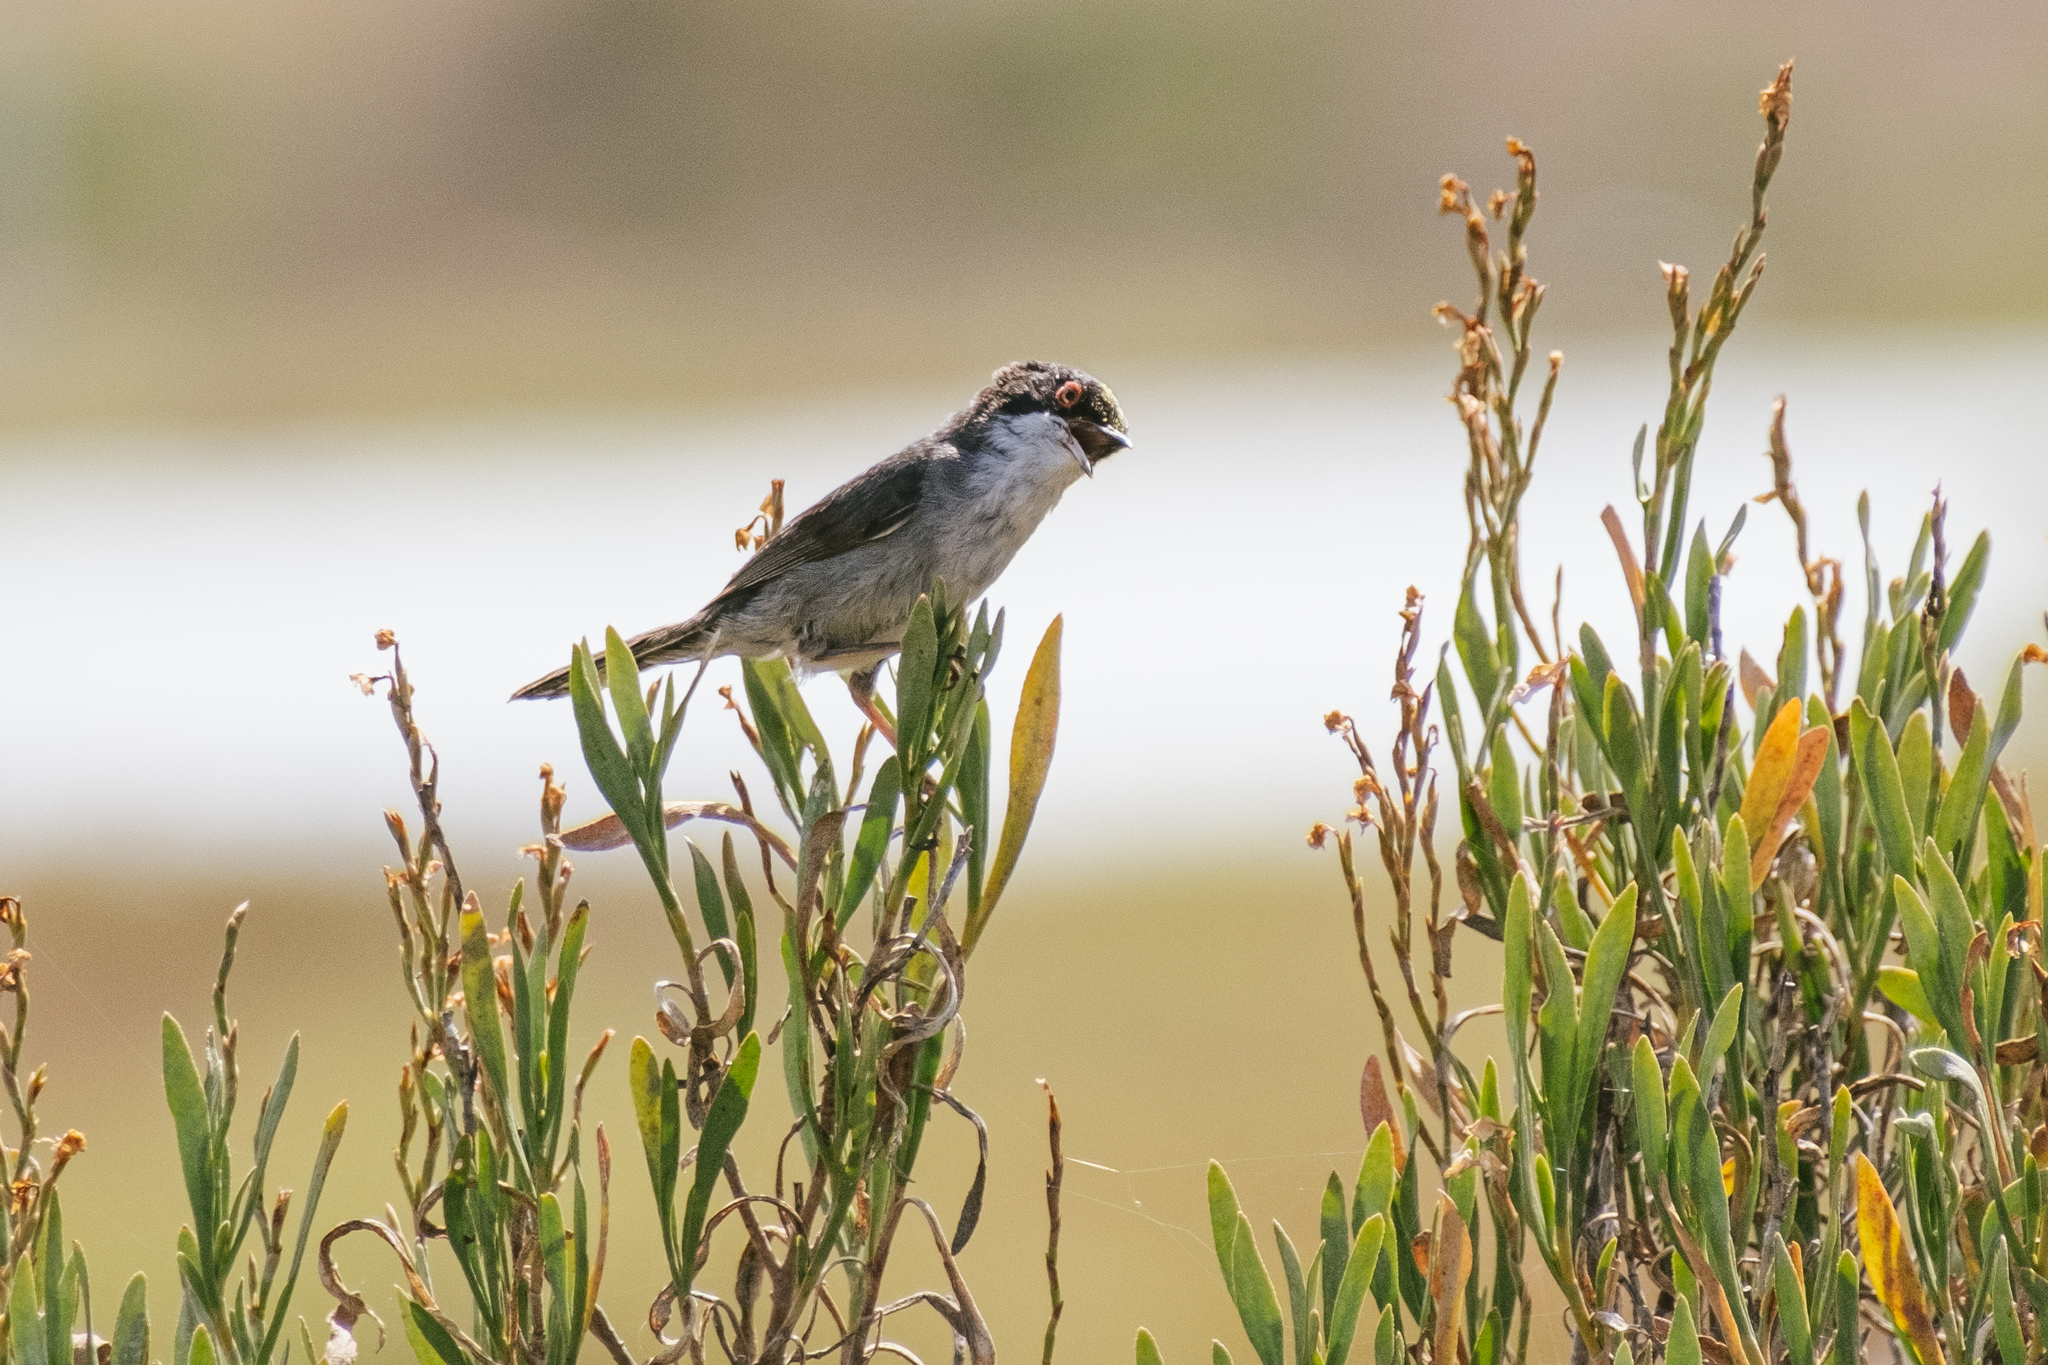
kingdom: Animalia
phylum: Chordata
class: Aves
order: Passeriformes
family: Sylviidae
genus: Curruca
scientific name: Curruca melanocephala
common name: Sardinian warbler
